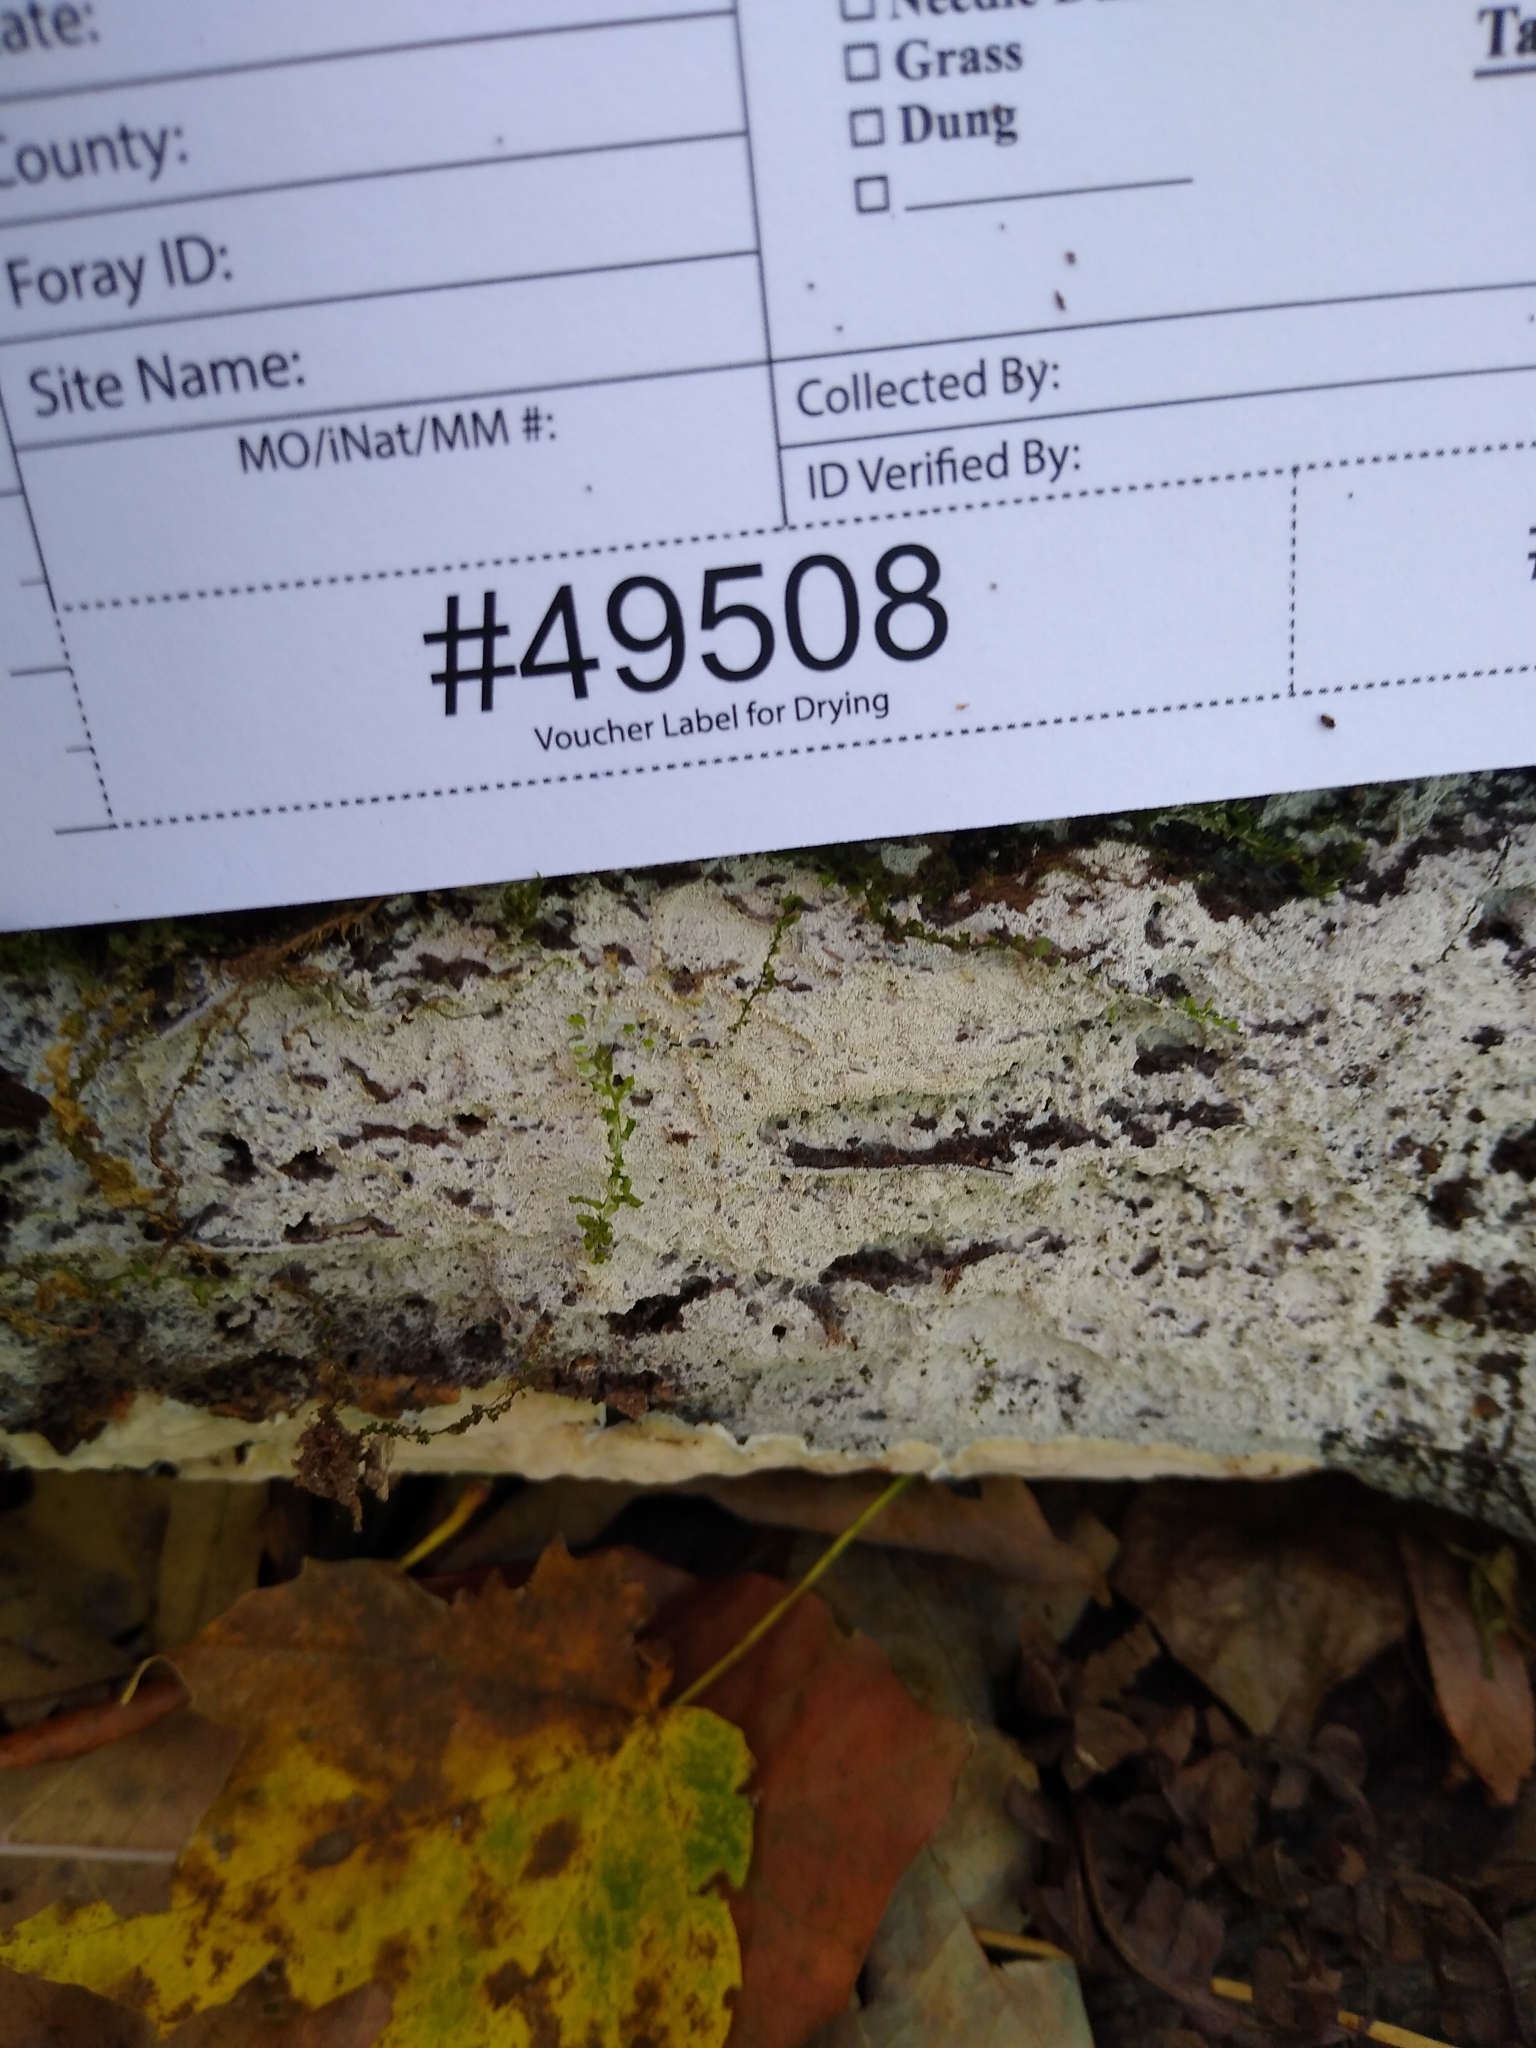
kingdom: Fungi
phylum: Basidiomycota
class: Agaricomycetes
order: Cantharellales
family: Hydnaceae
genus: Sistotrema
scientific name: Sistotrema brinkmannii
